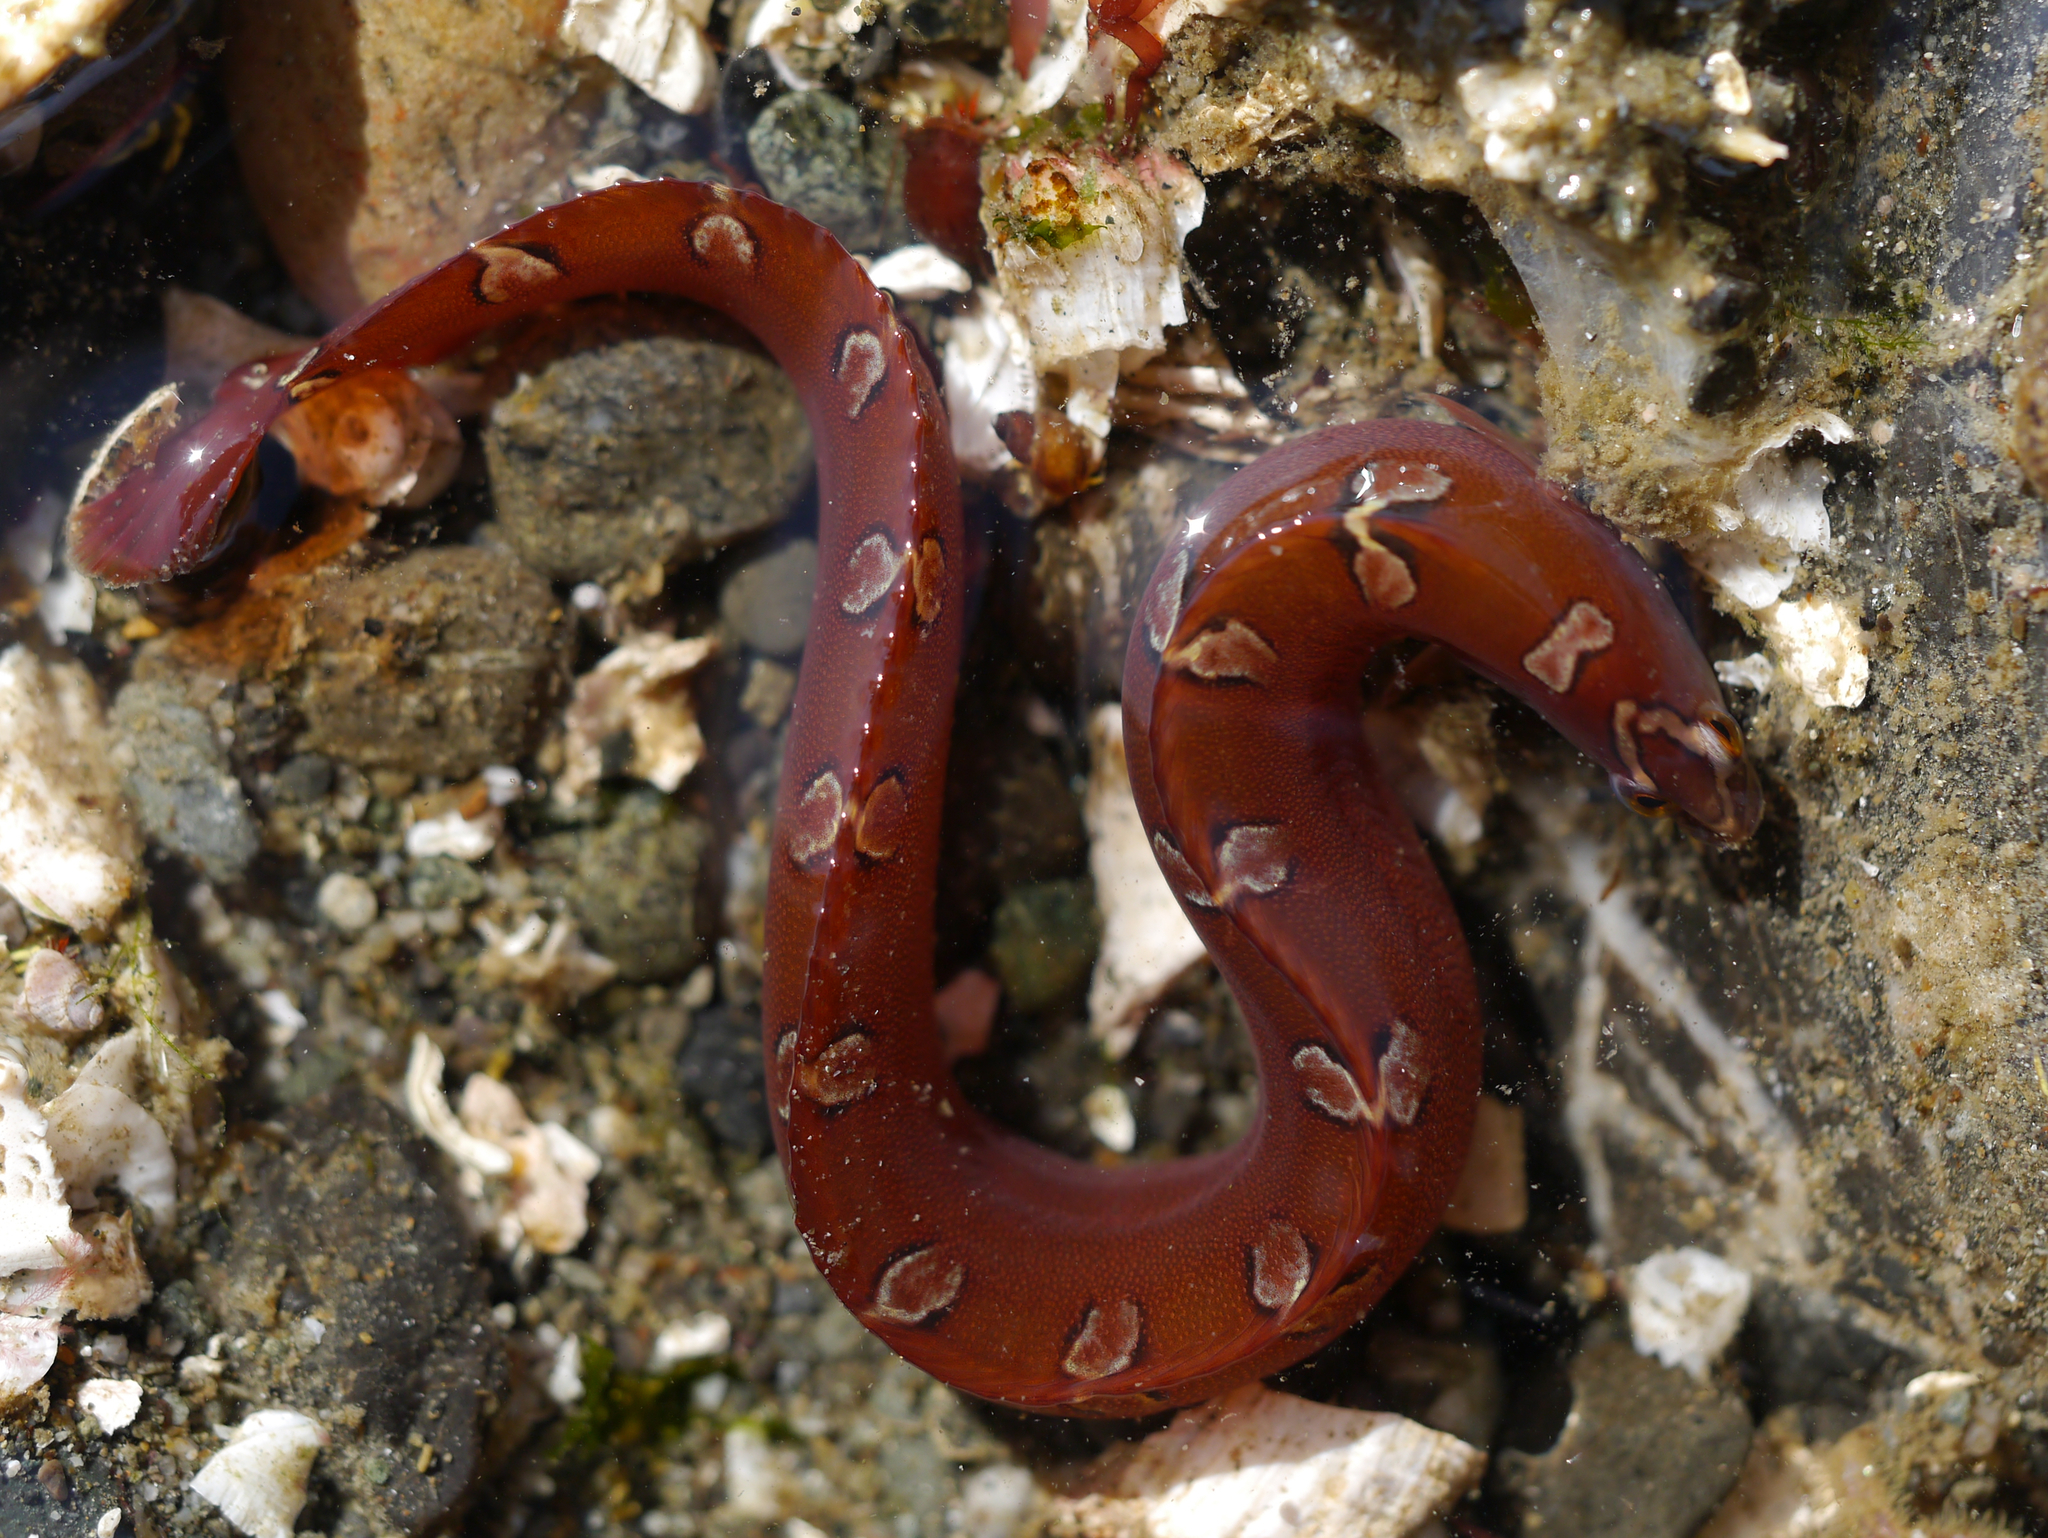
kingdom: Animalia
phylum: Chordata
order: Perciformes
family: Pholidae
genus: Pholis
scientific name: Pholis laeta
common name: Crescent gunnel
